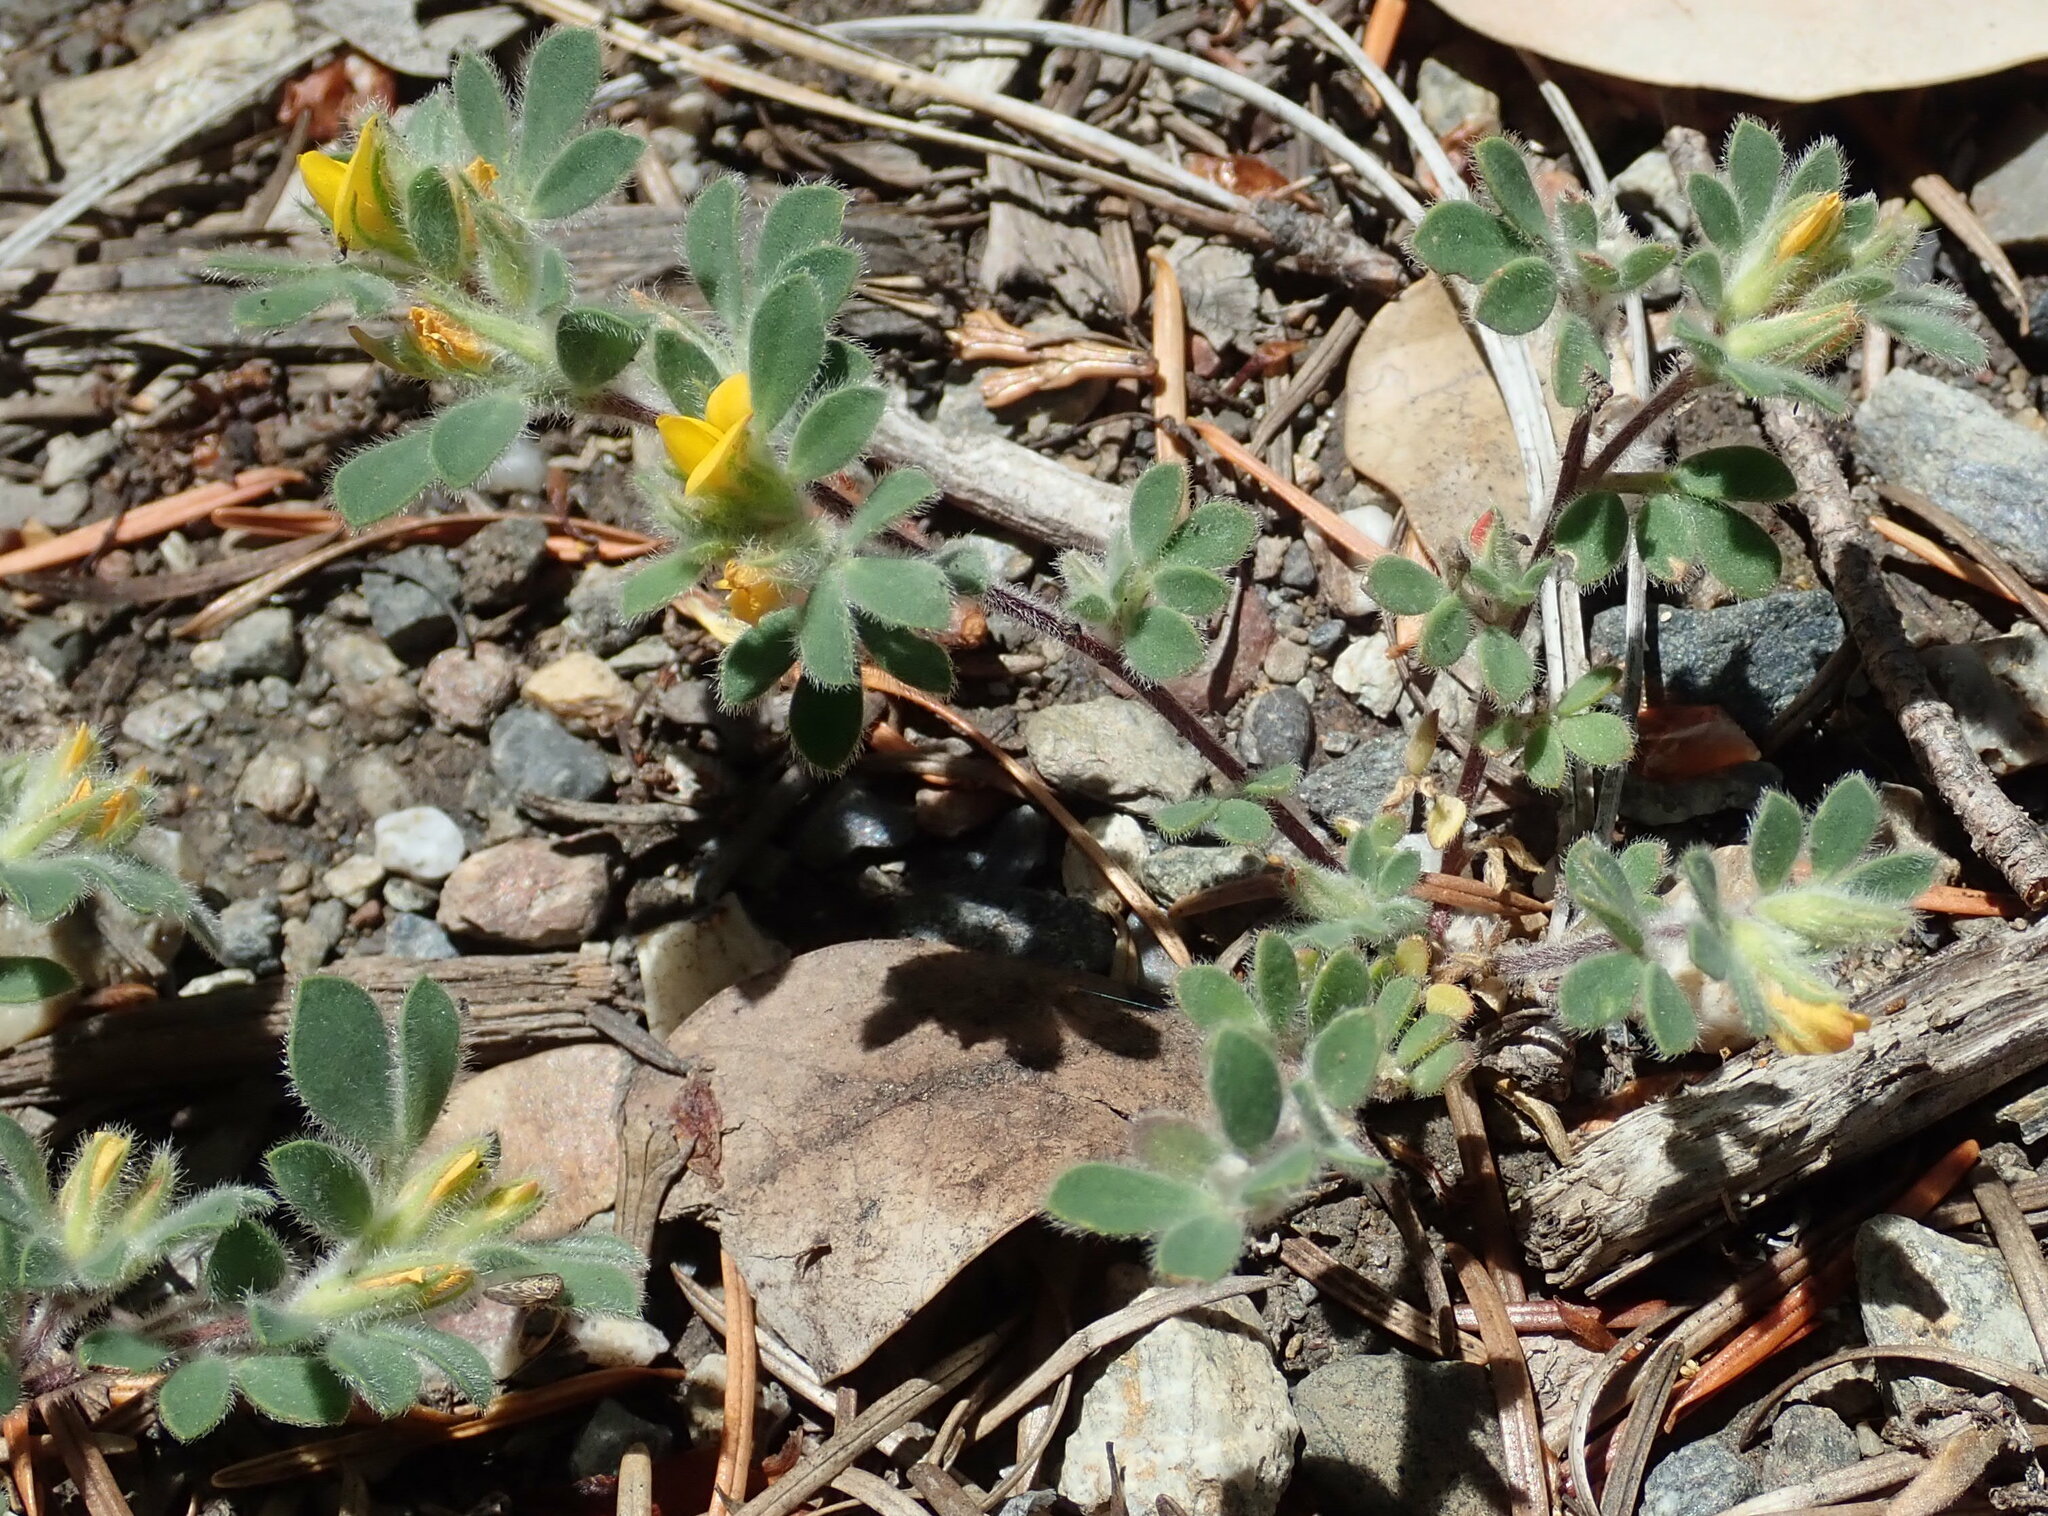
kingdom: Plantae
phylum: Tracheophyta
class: Magnoliopsida
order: Fabales
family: Fabaceae
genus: Acmispon
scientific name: Acmispon brachycarpus
